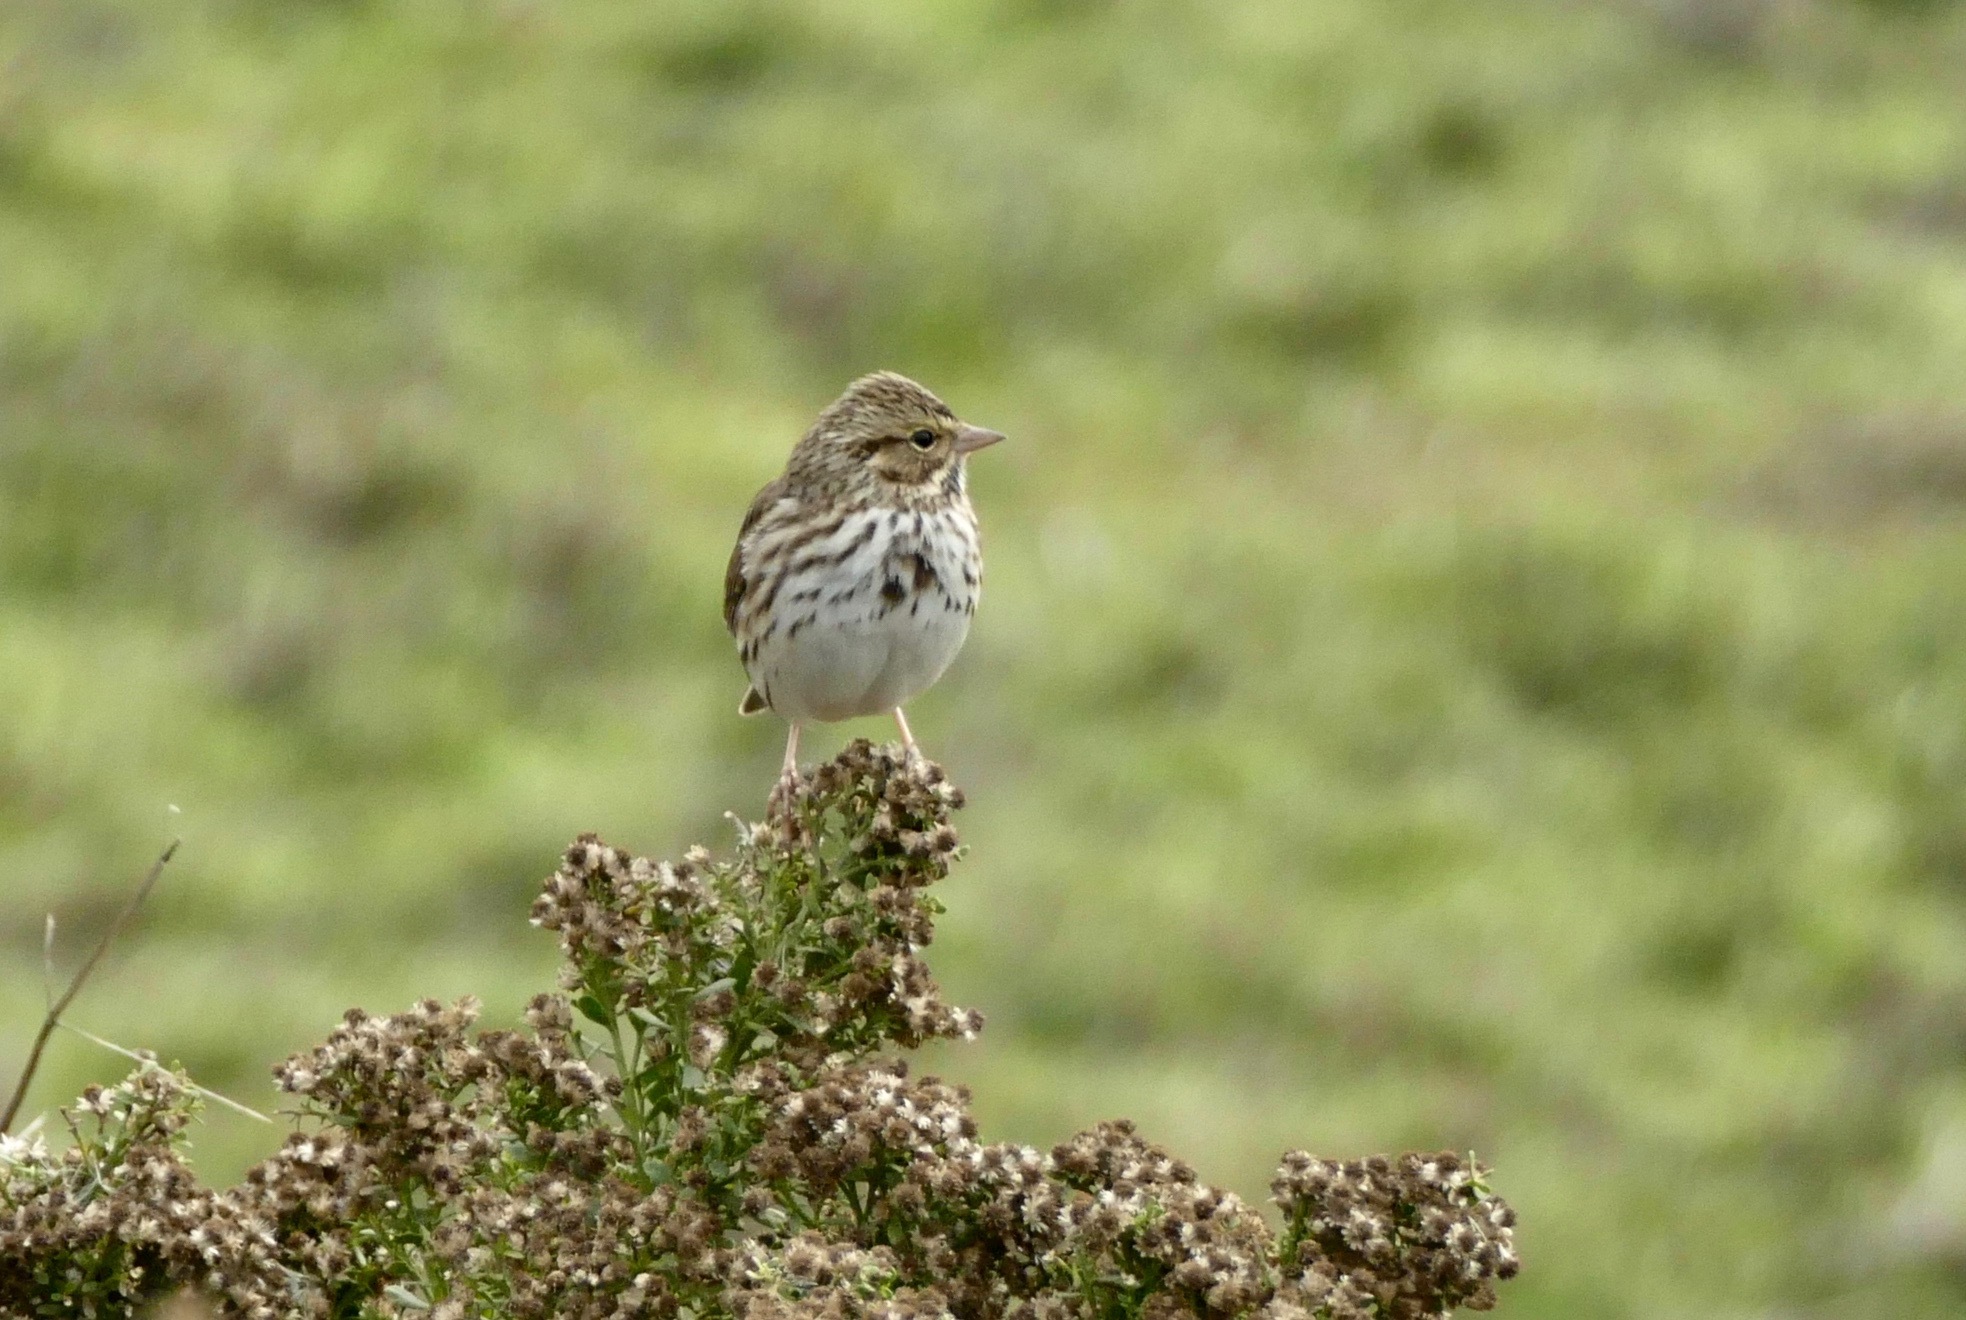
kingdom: Animalia
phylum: Chordata
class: Aves
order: Passeriformes
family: Passerellidae
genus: Passerculus
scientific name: Passerculus sandwichensis
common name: Savannah sparrow
